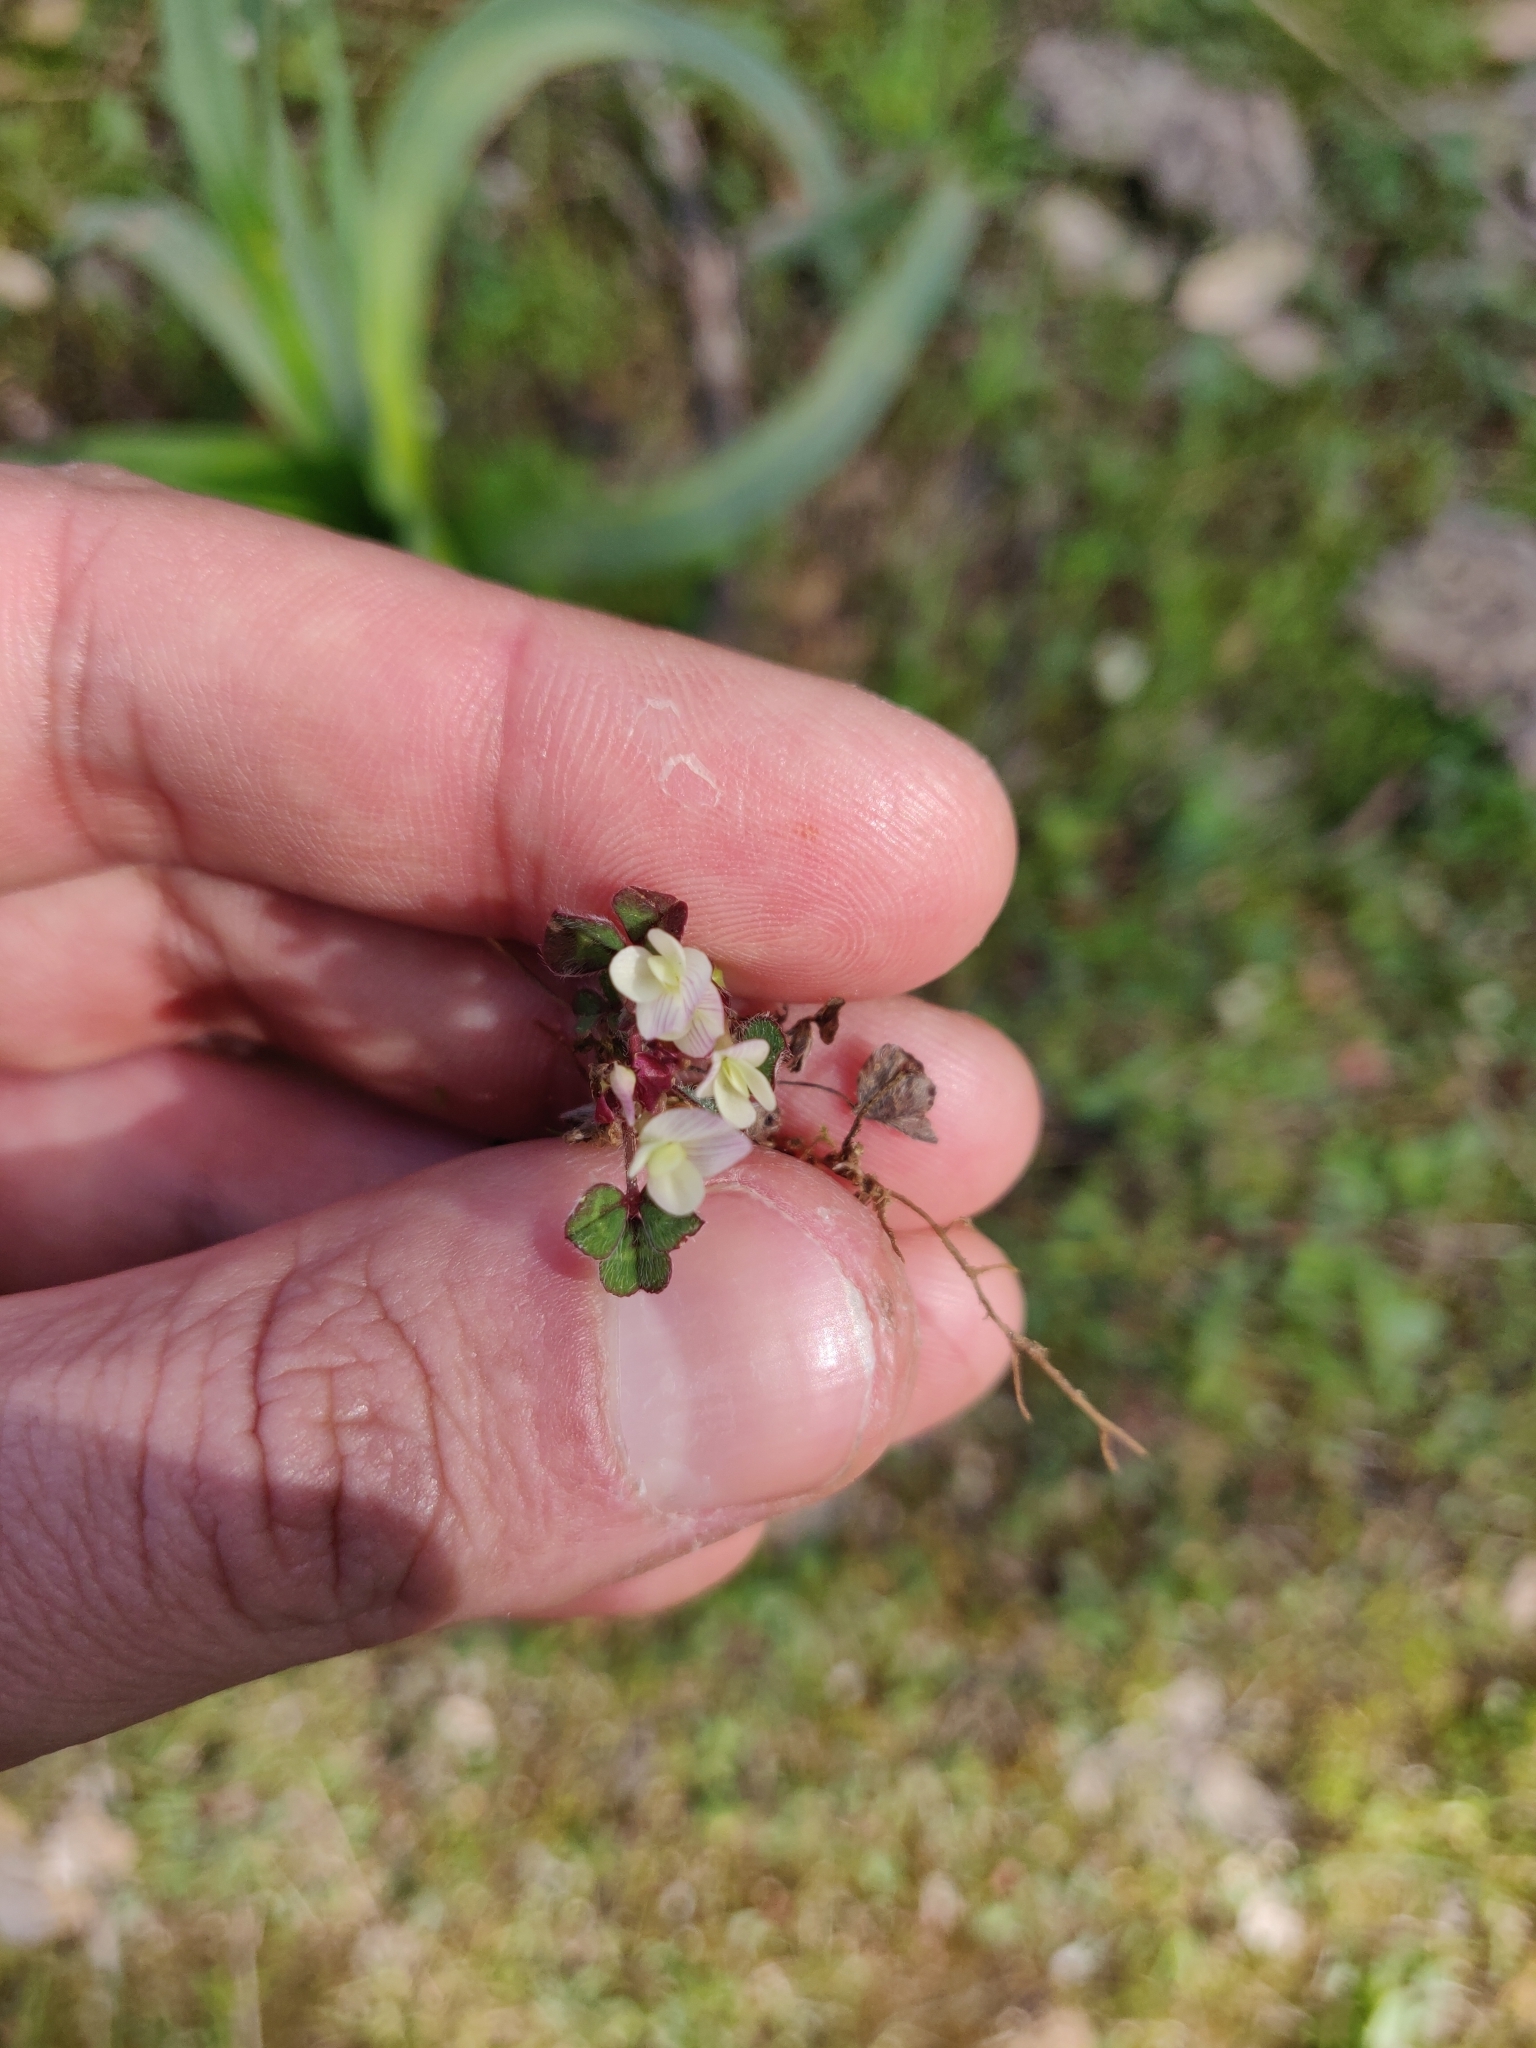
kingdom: Plantae
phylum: Tracheophyta
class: Magnoliopsida
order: Fabales
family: Fabaceae
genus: Trifolium
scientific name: Trifolium subterraneum
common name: Subterranean clover
